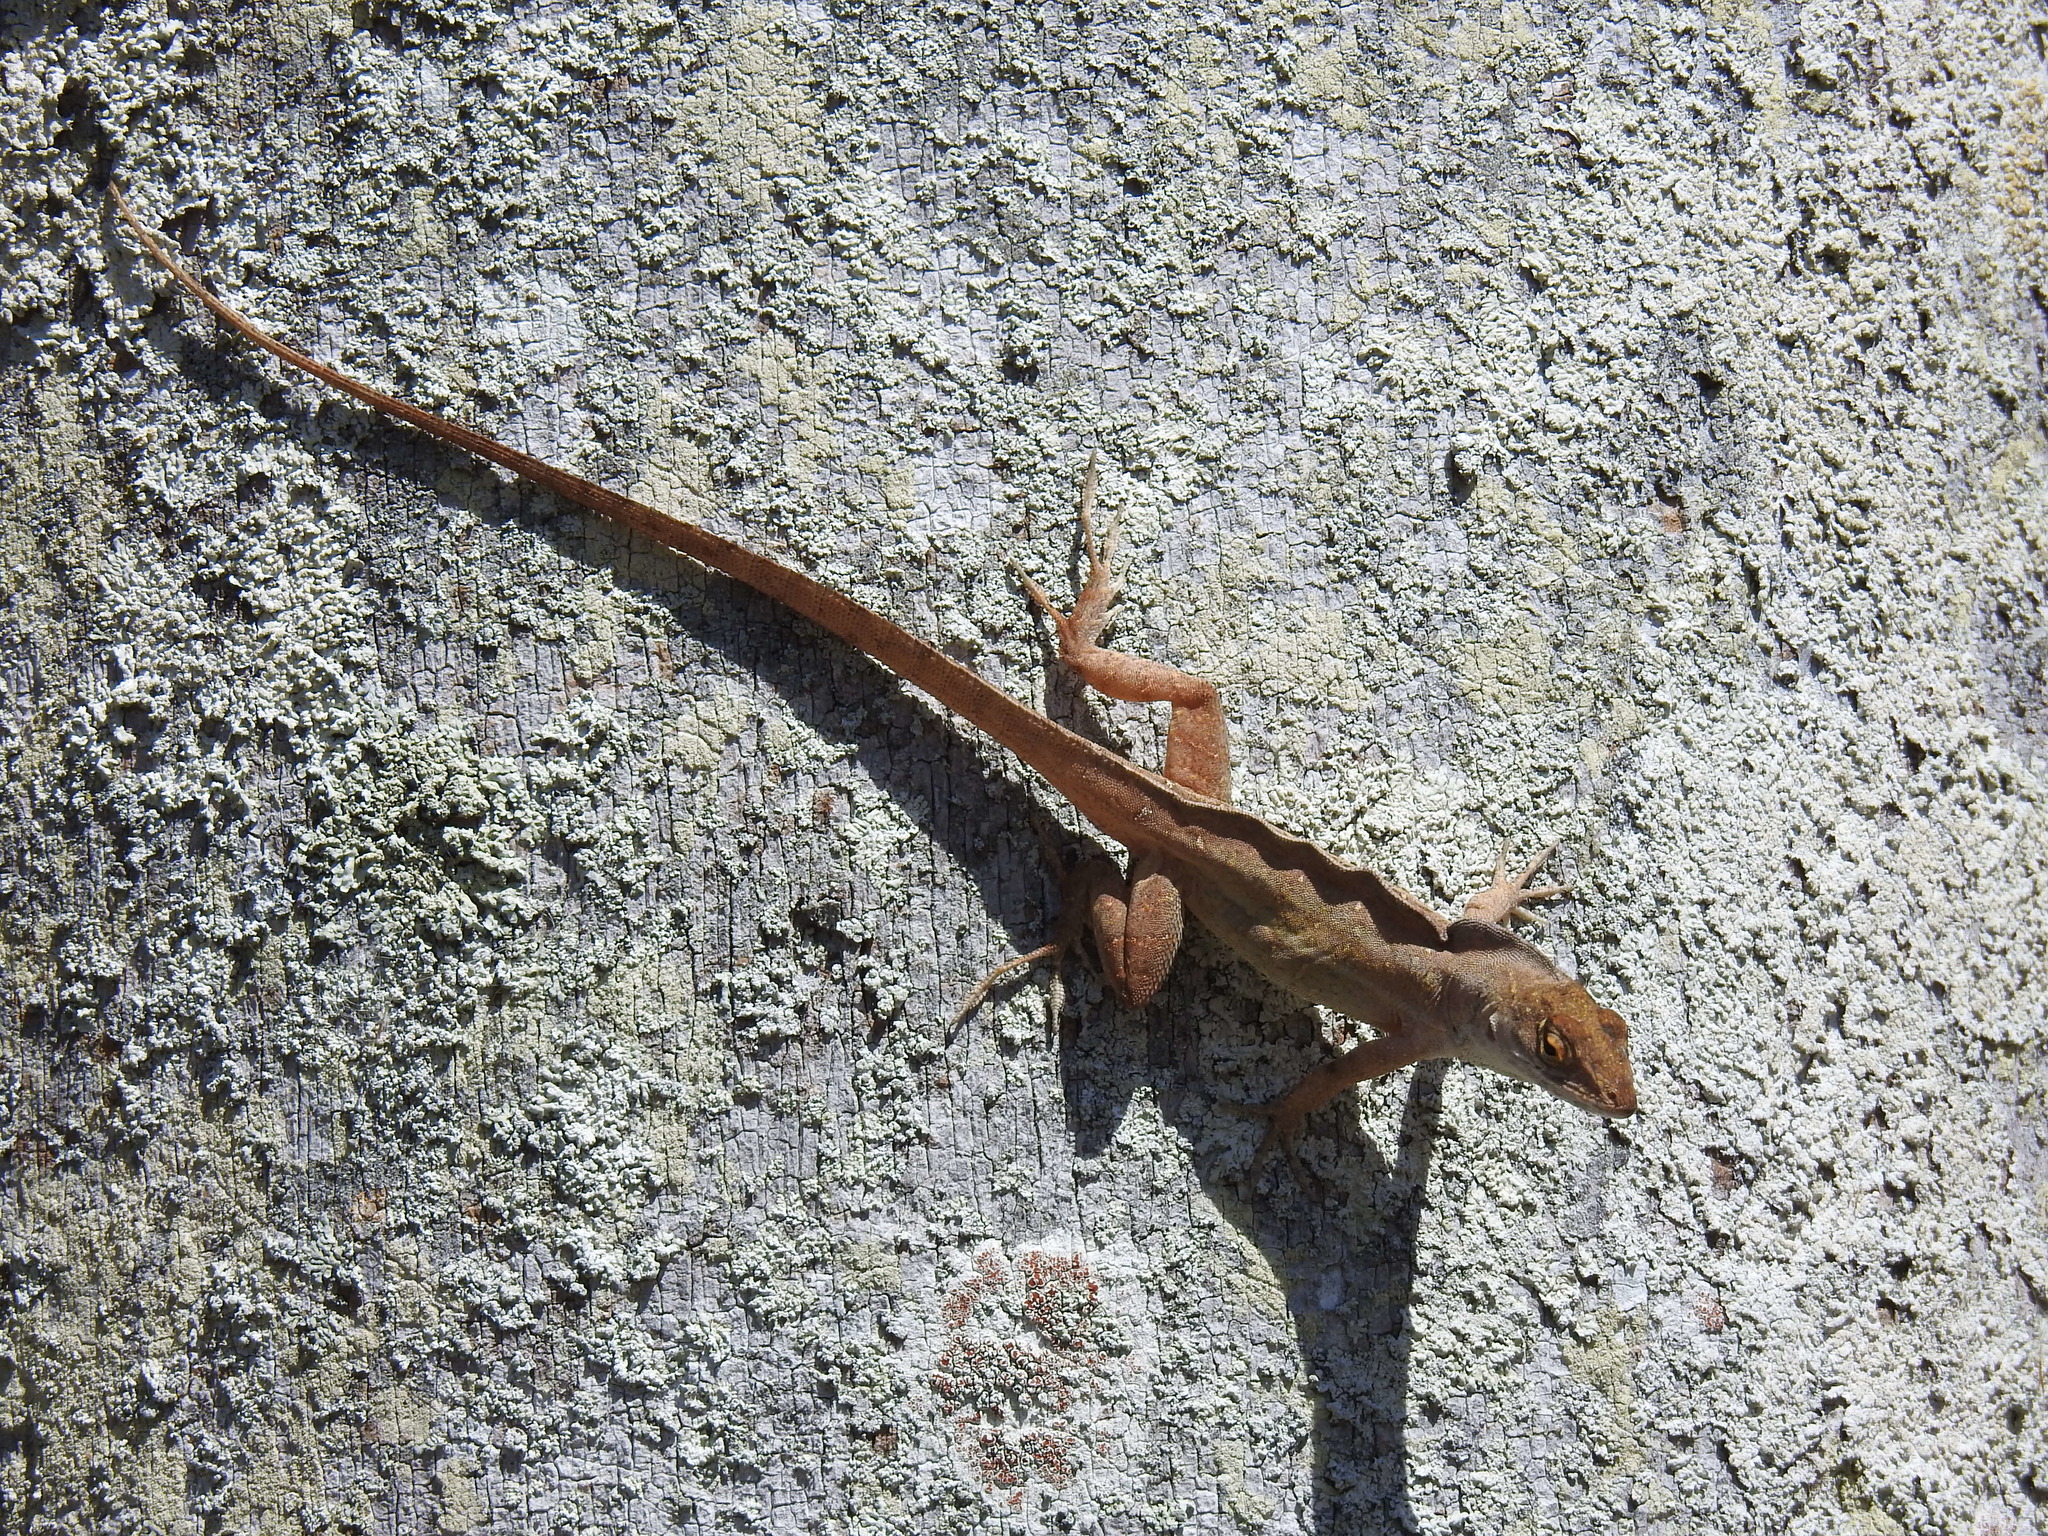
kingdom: Animalia
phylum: Chordata
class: Squamata
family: Dactyloidae
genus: Anolis
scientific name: Anolis sagrei
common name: Brown anole
